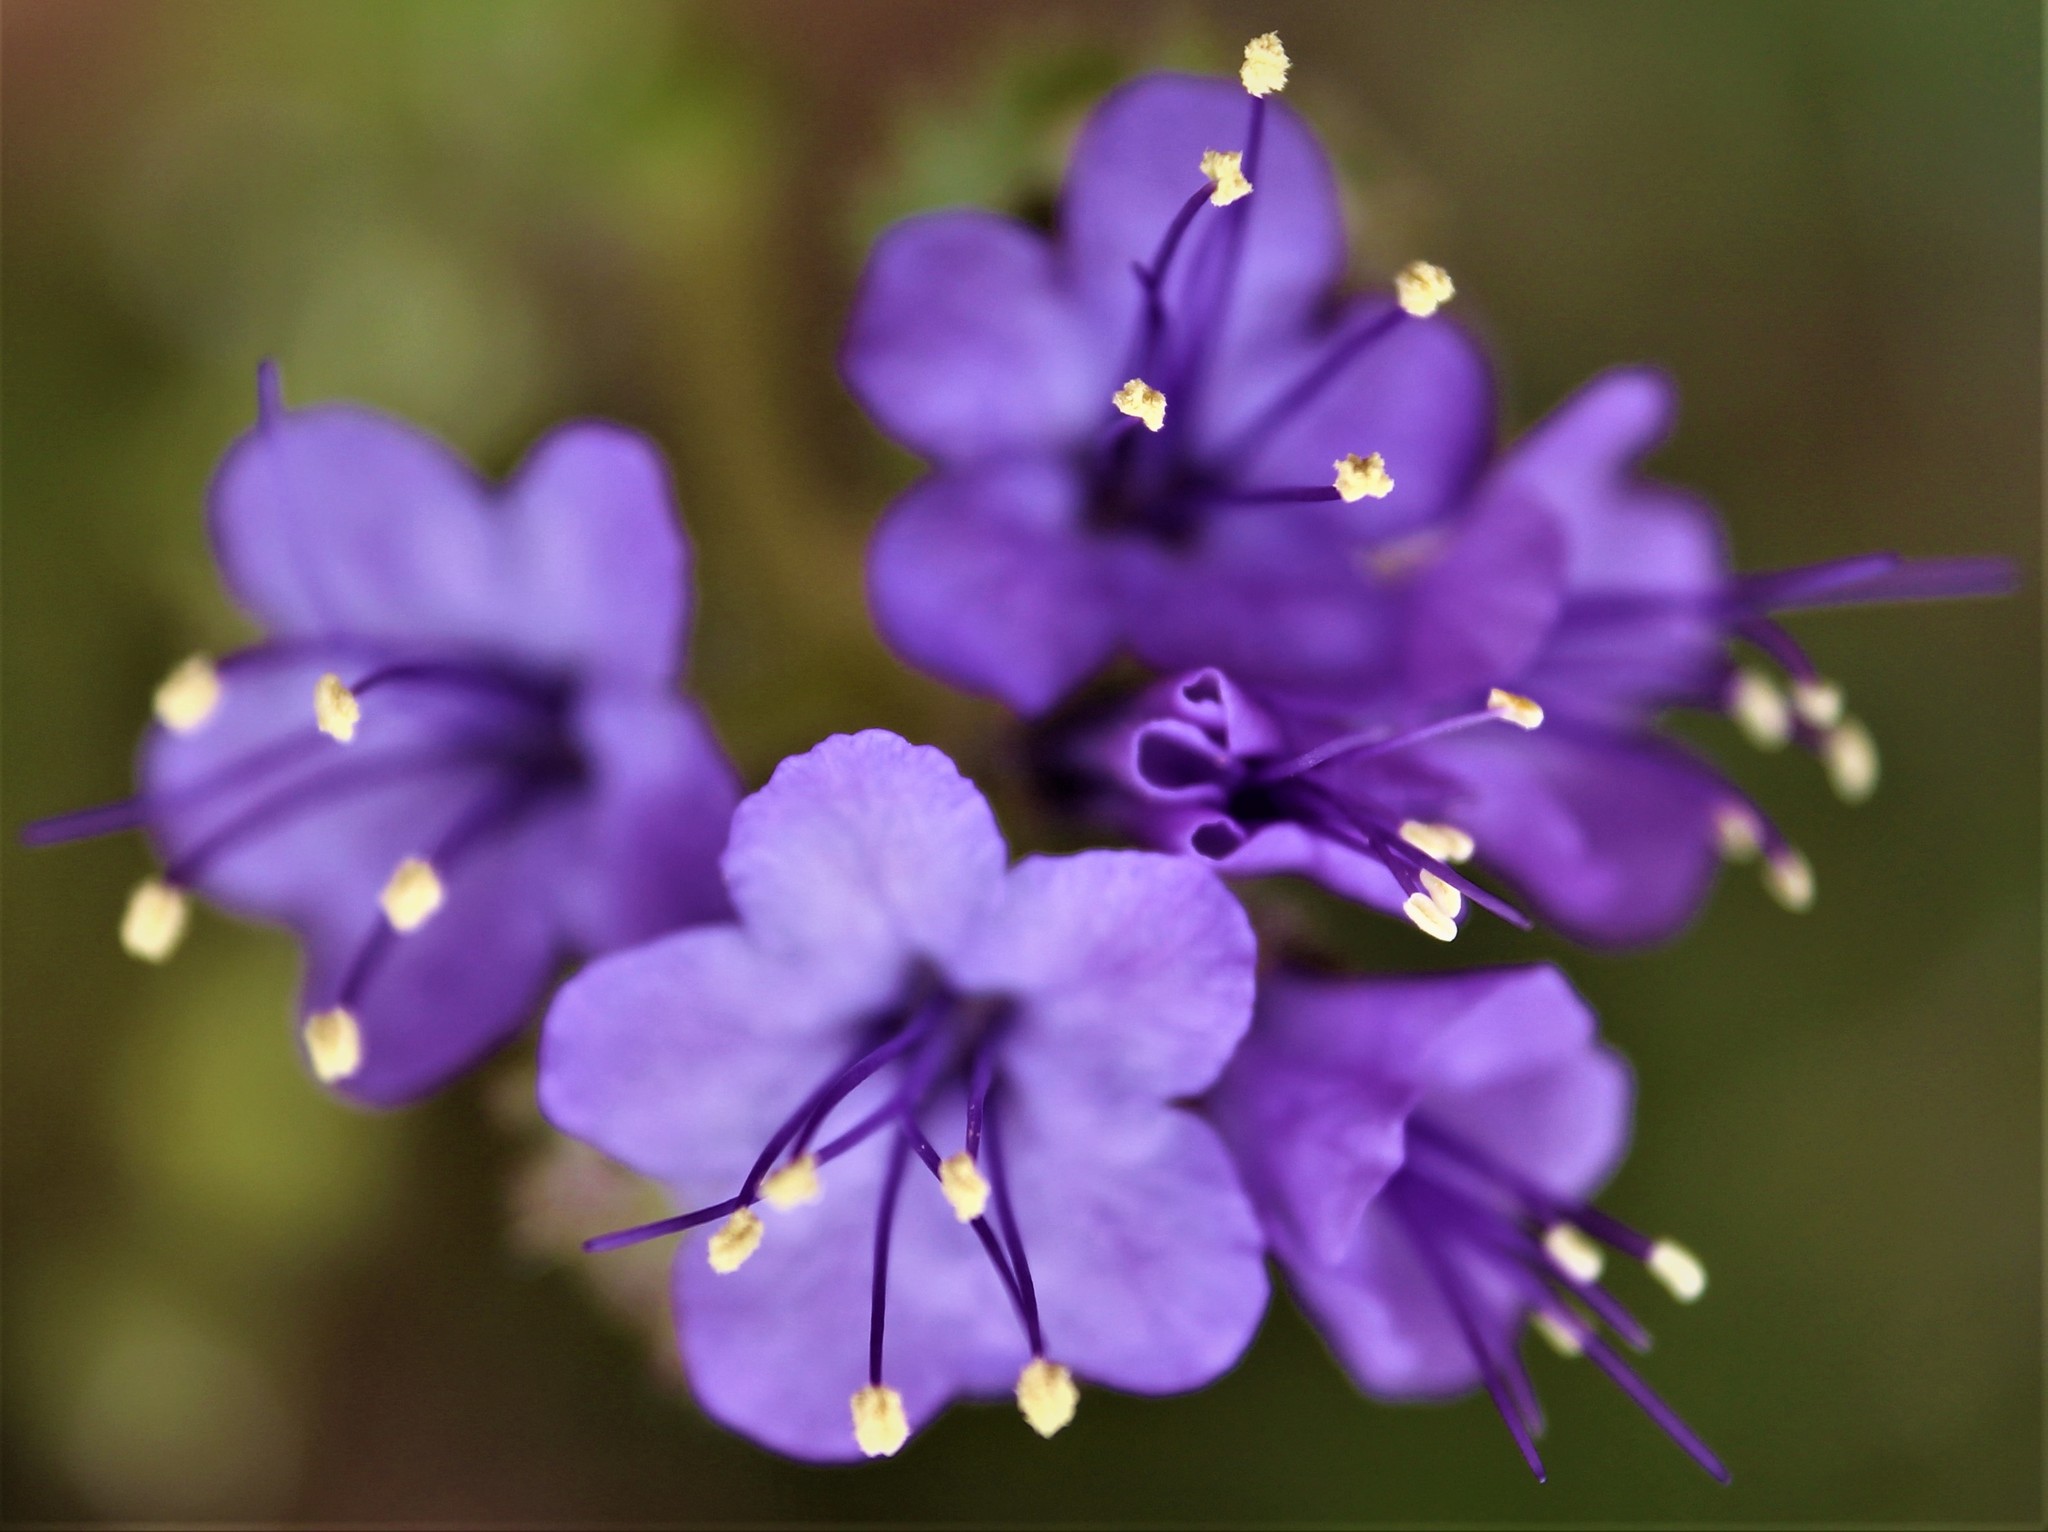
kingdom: Plantae
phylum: Tracheophyta
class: Magnoliopsida
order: Boraginales
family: Hydrophyllaceae
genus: Phacelia
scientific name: Phacelia
